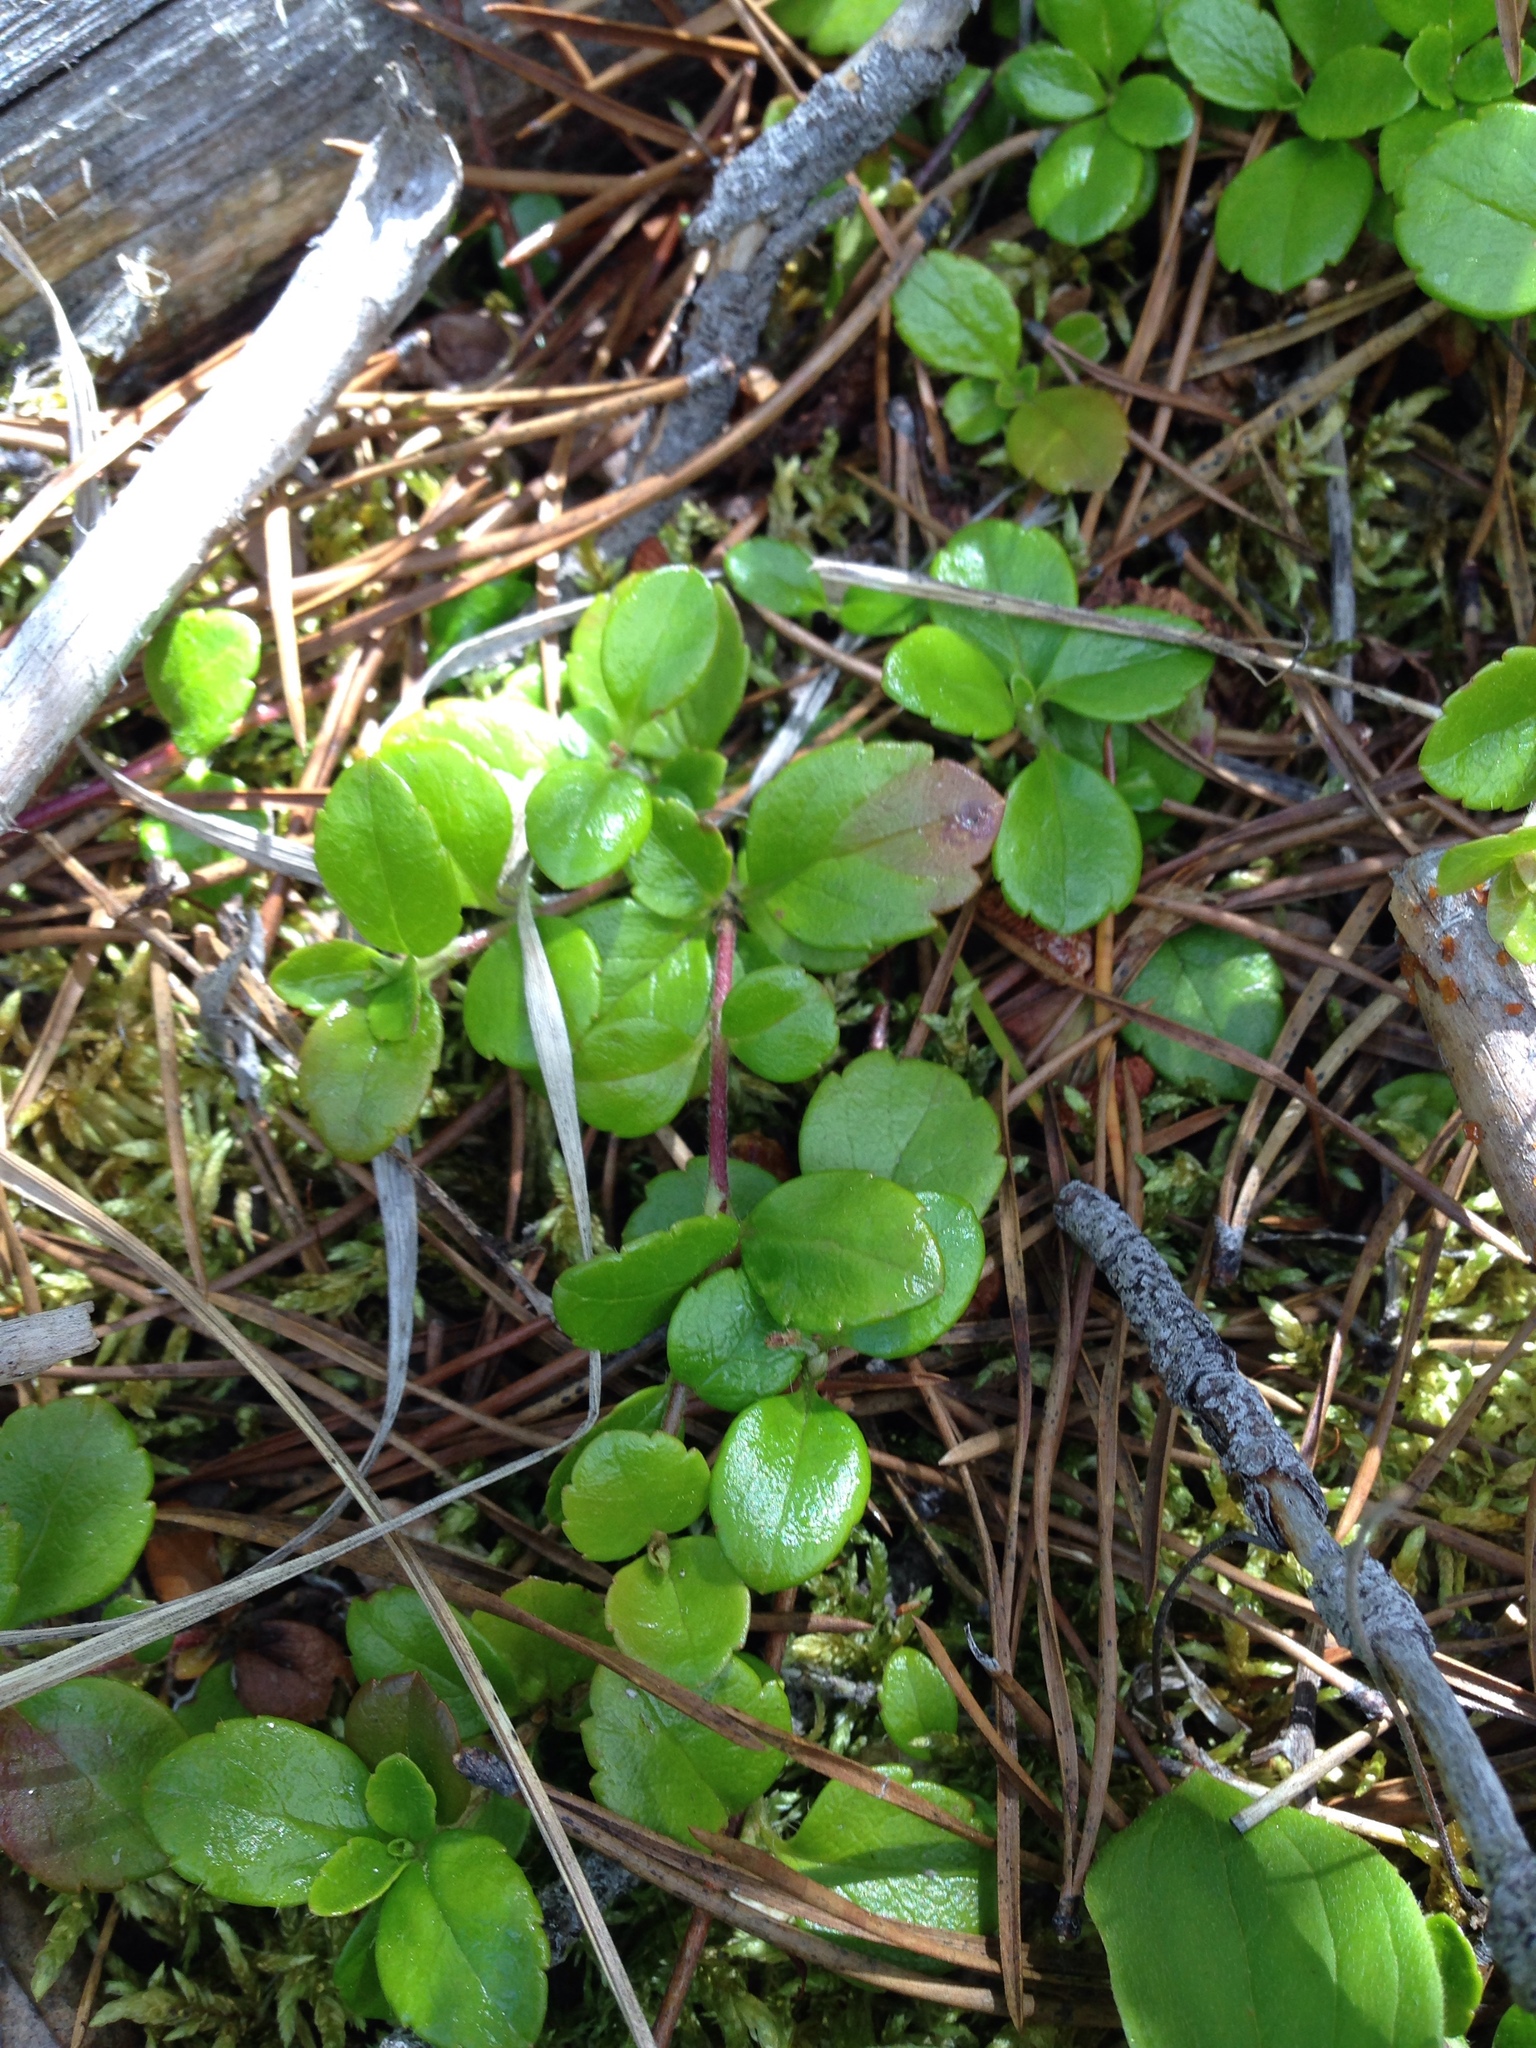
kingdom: Plantae
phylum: Tracheophyta
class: Magnoliopsida
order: Dipsacales
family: Caprifoliaceae
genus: Linnaea
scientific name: Linnaea borealis
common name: Twinflower
